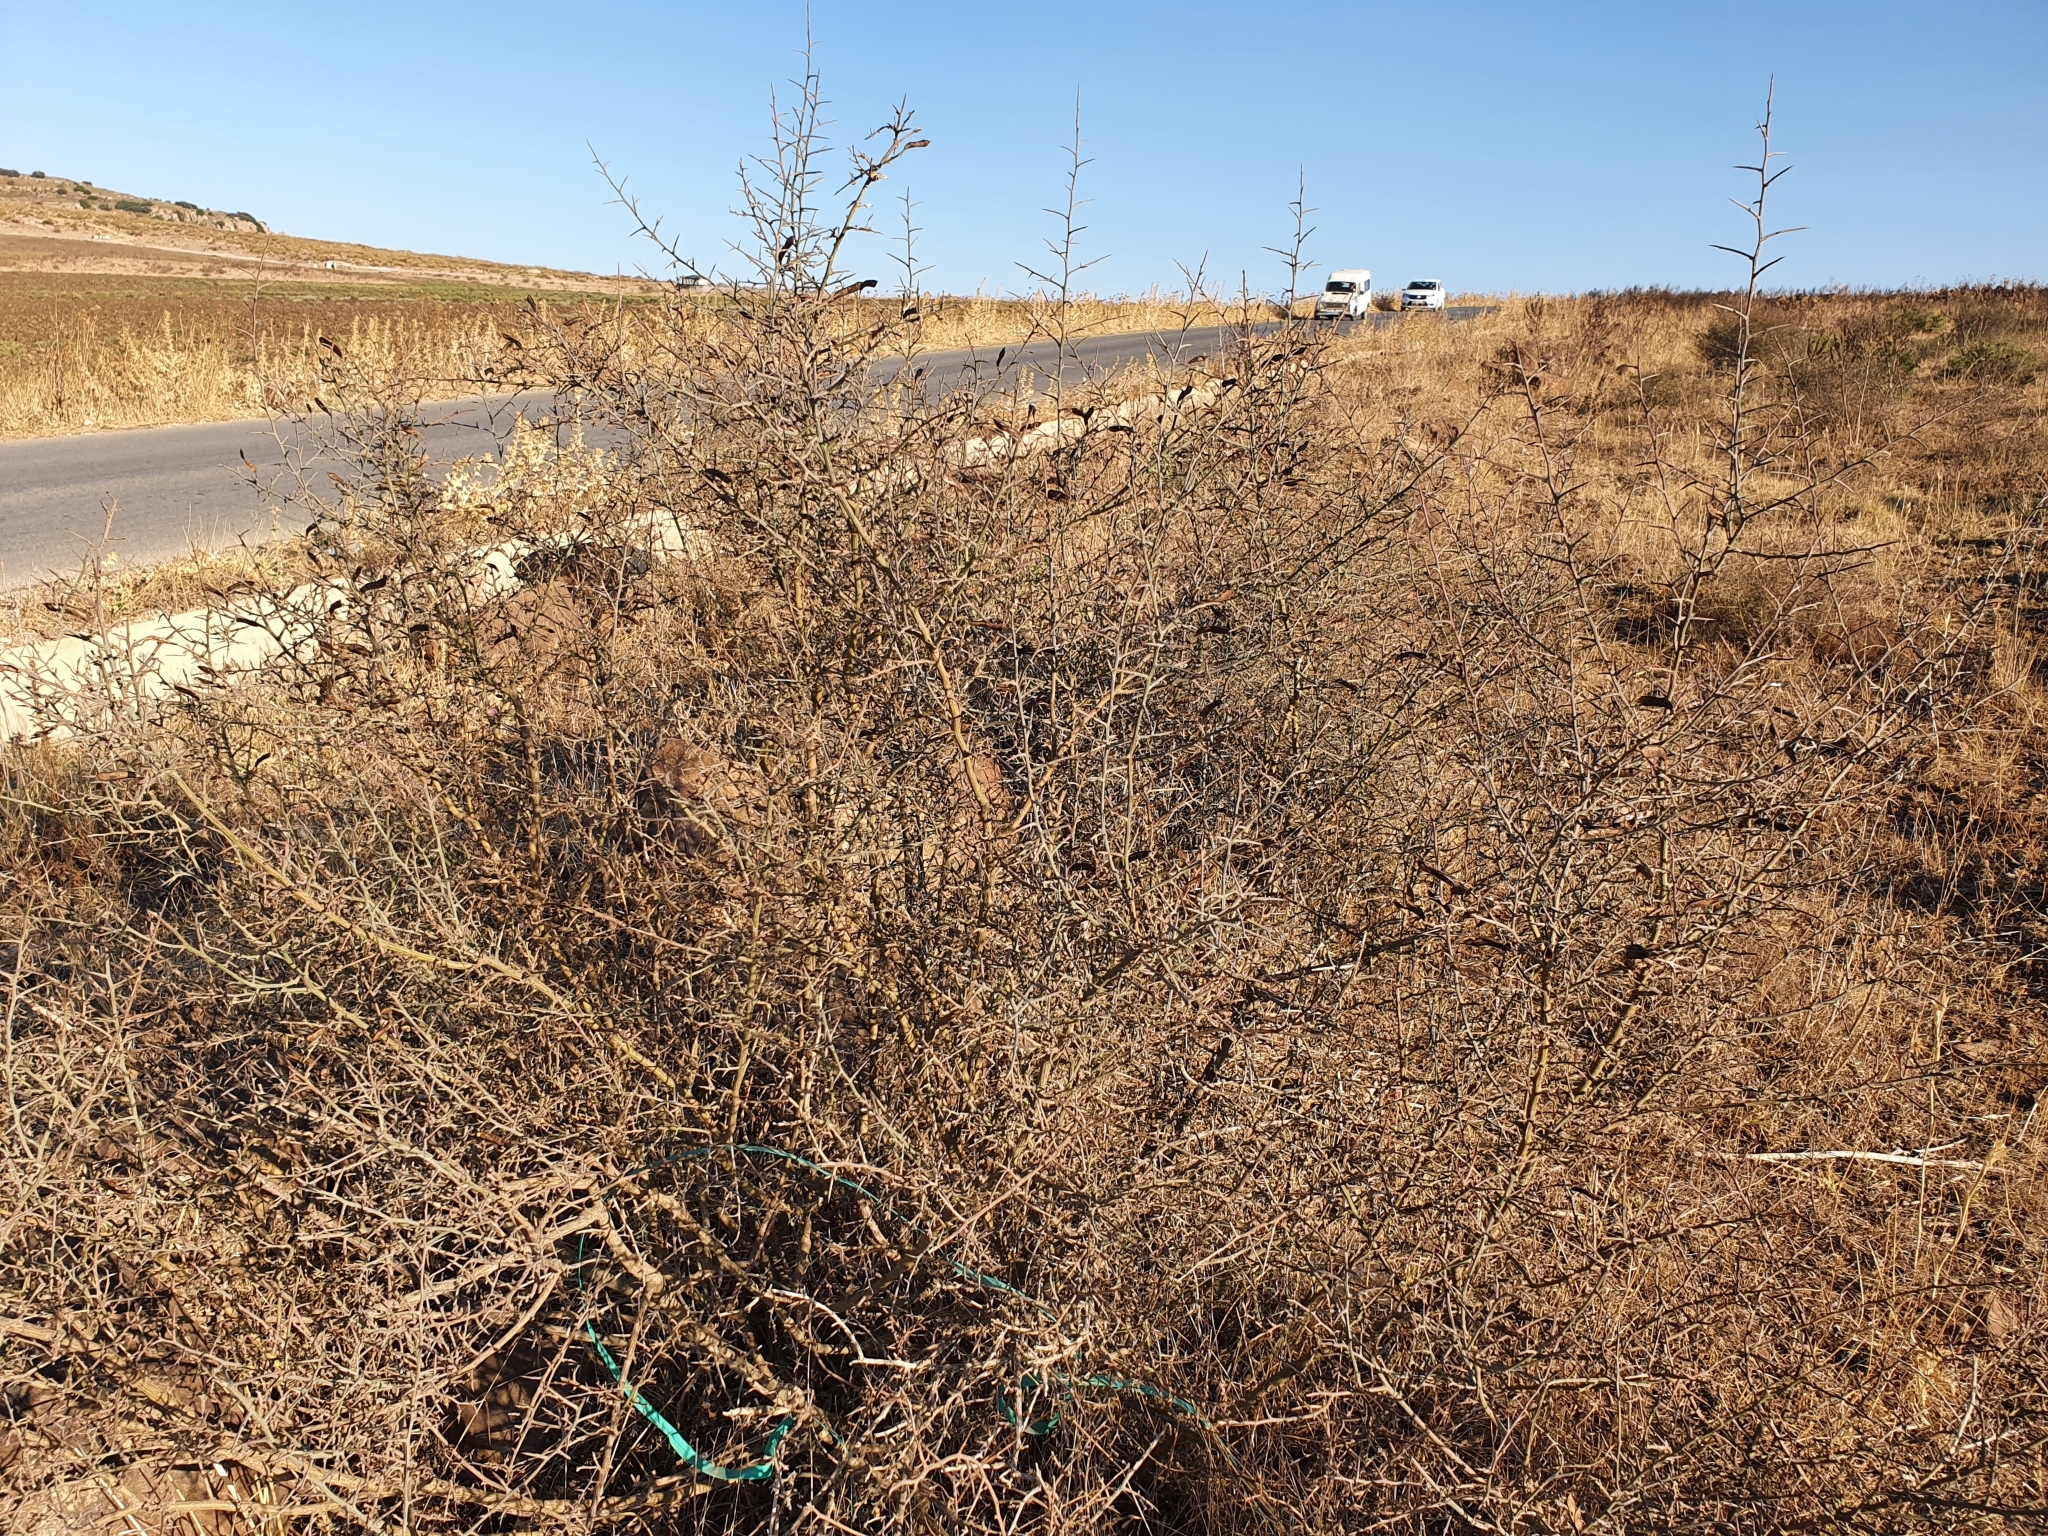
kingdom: Plantae
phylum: Tracheophyta
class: Magnoliopsida
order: Fabales
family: Fabaceae
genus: Calicotome
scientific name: Calicotome spinosa
